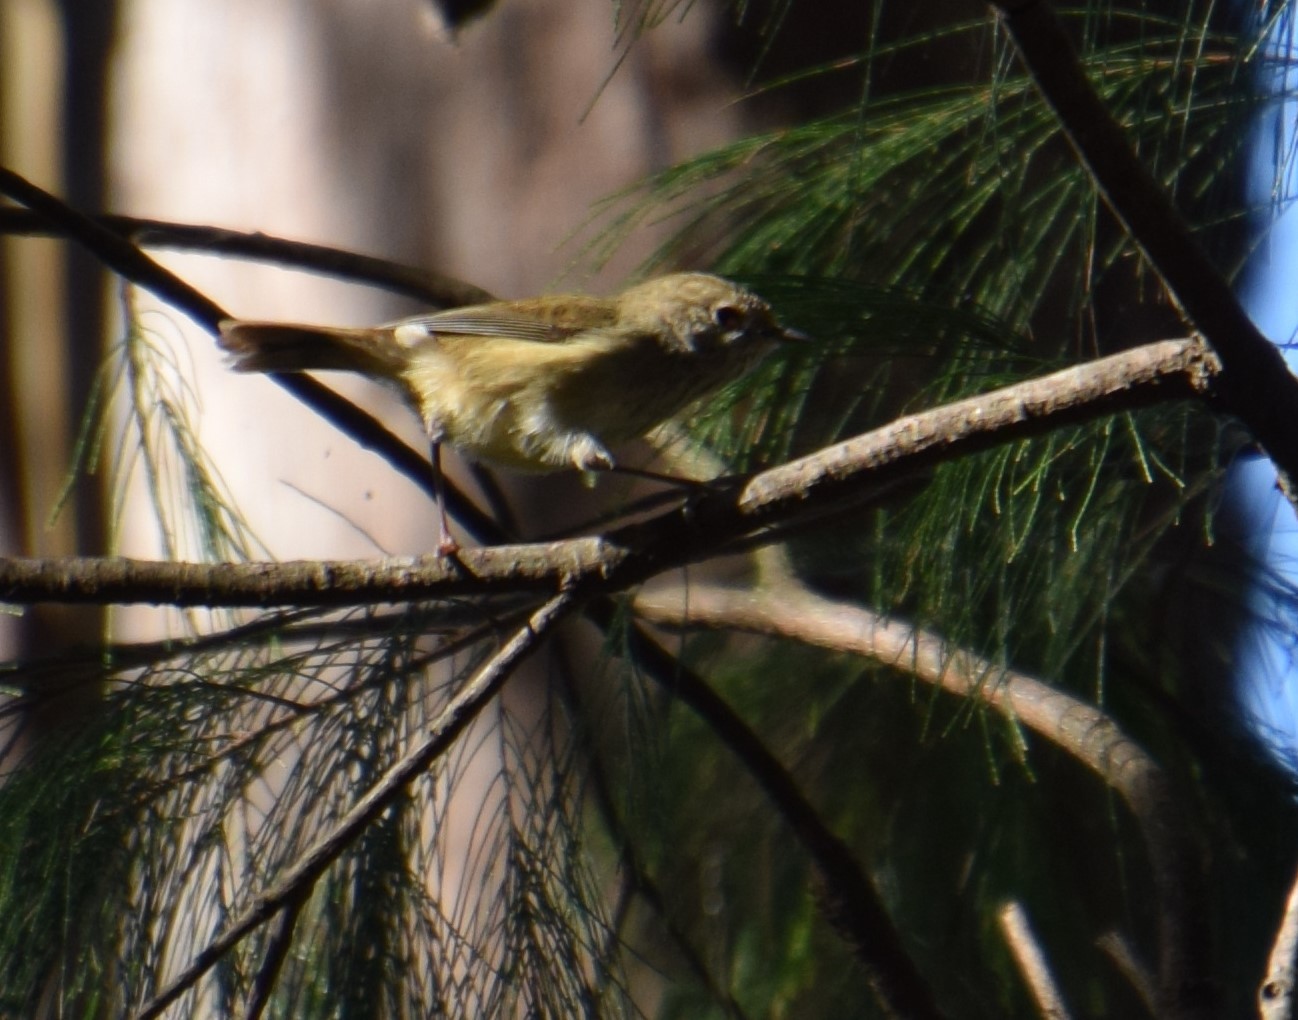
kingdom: Animalia
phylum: Chordata
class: Aves
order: Passeriformes
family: Acanthizidae
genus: Acanthiza
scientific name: Acanthiza pusilla
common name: Brown thornbill
